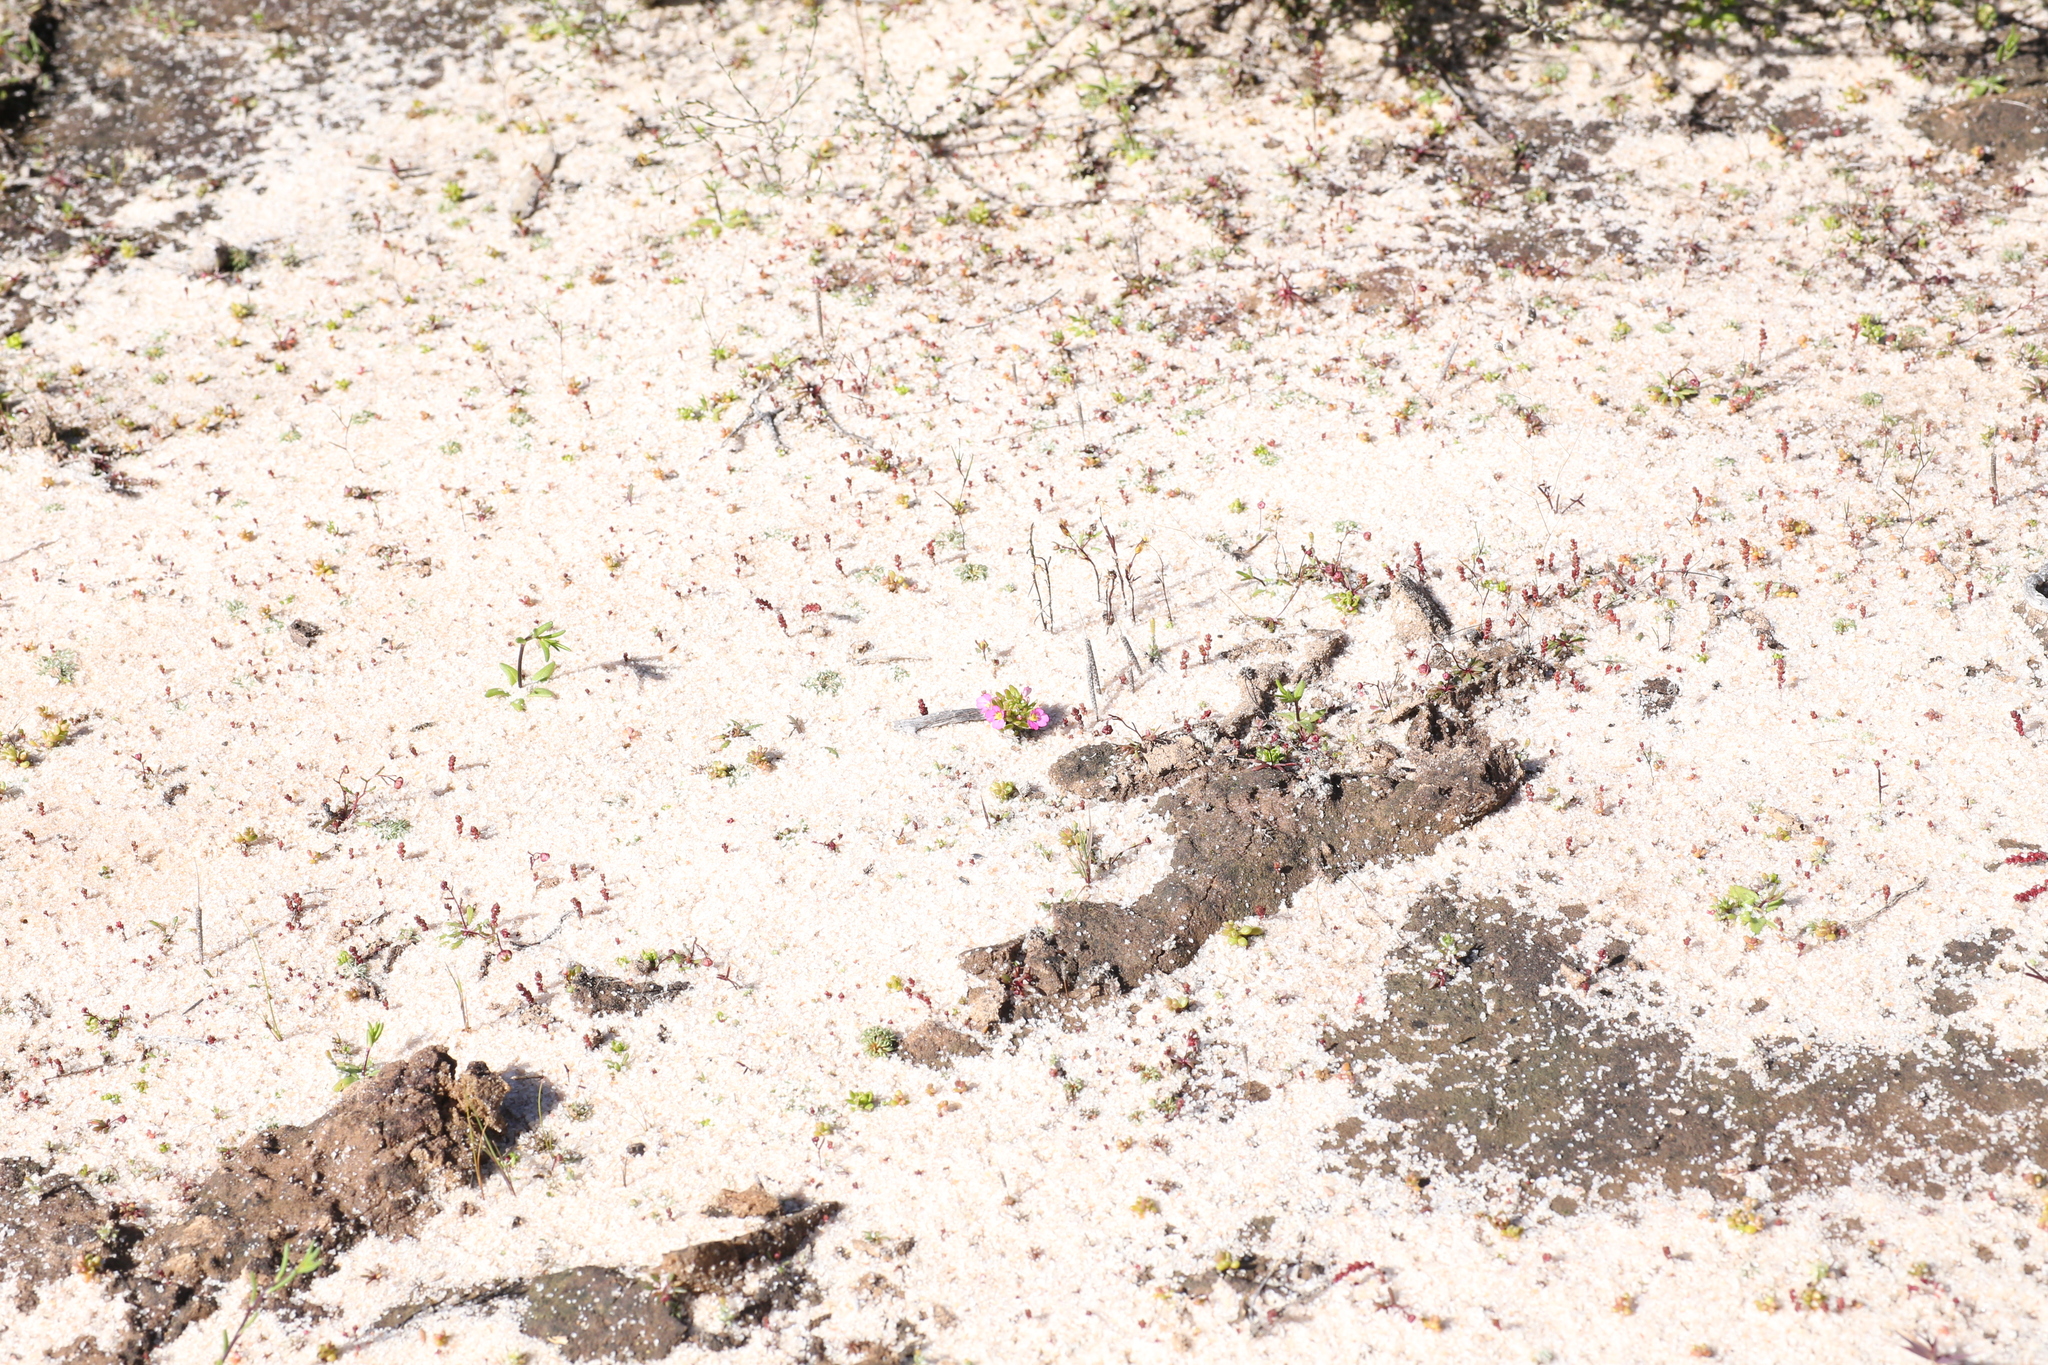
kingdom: Plantae
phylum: Tracheophyta
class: Magnoliopsida
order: Asterales
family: Stylidiaceae
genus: Levenhookia
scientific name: Levenhookia leptantha
